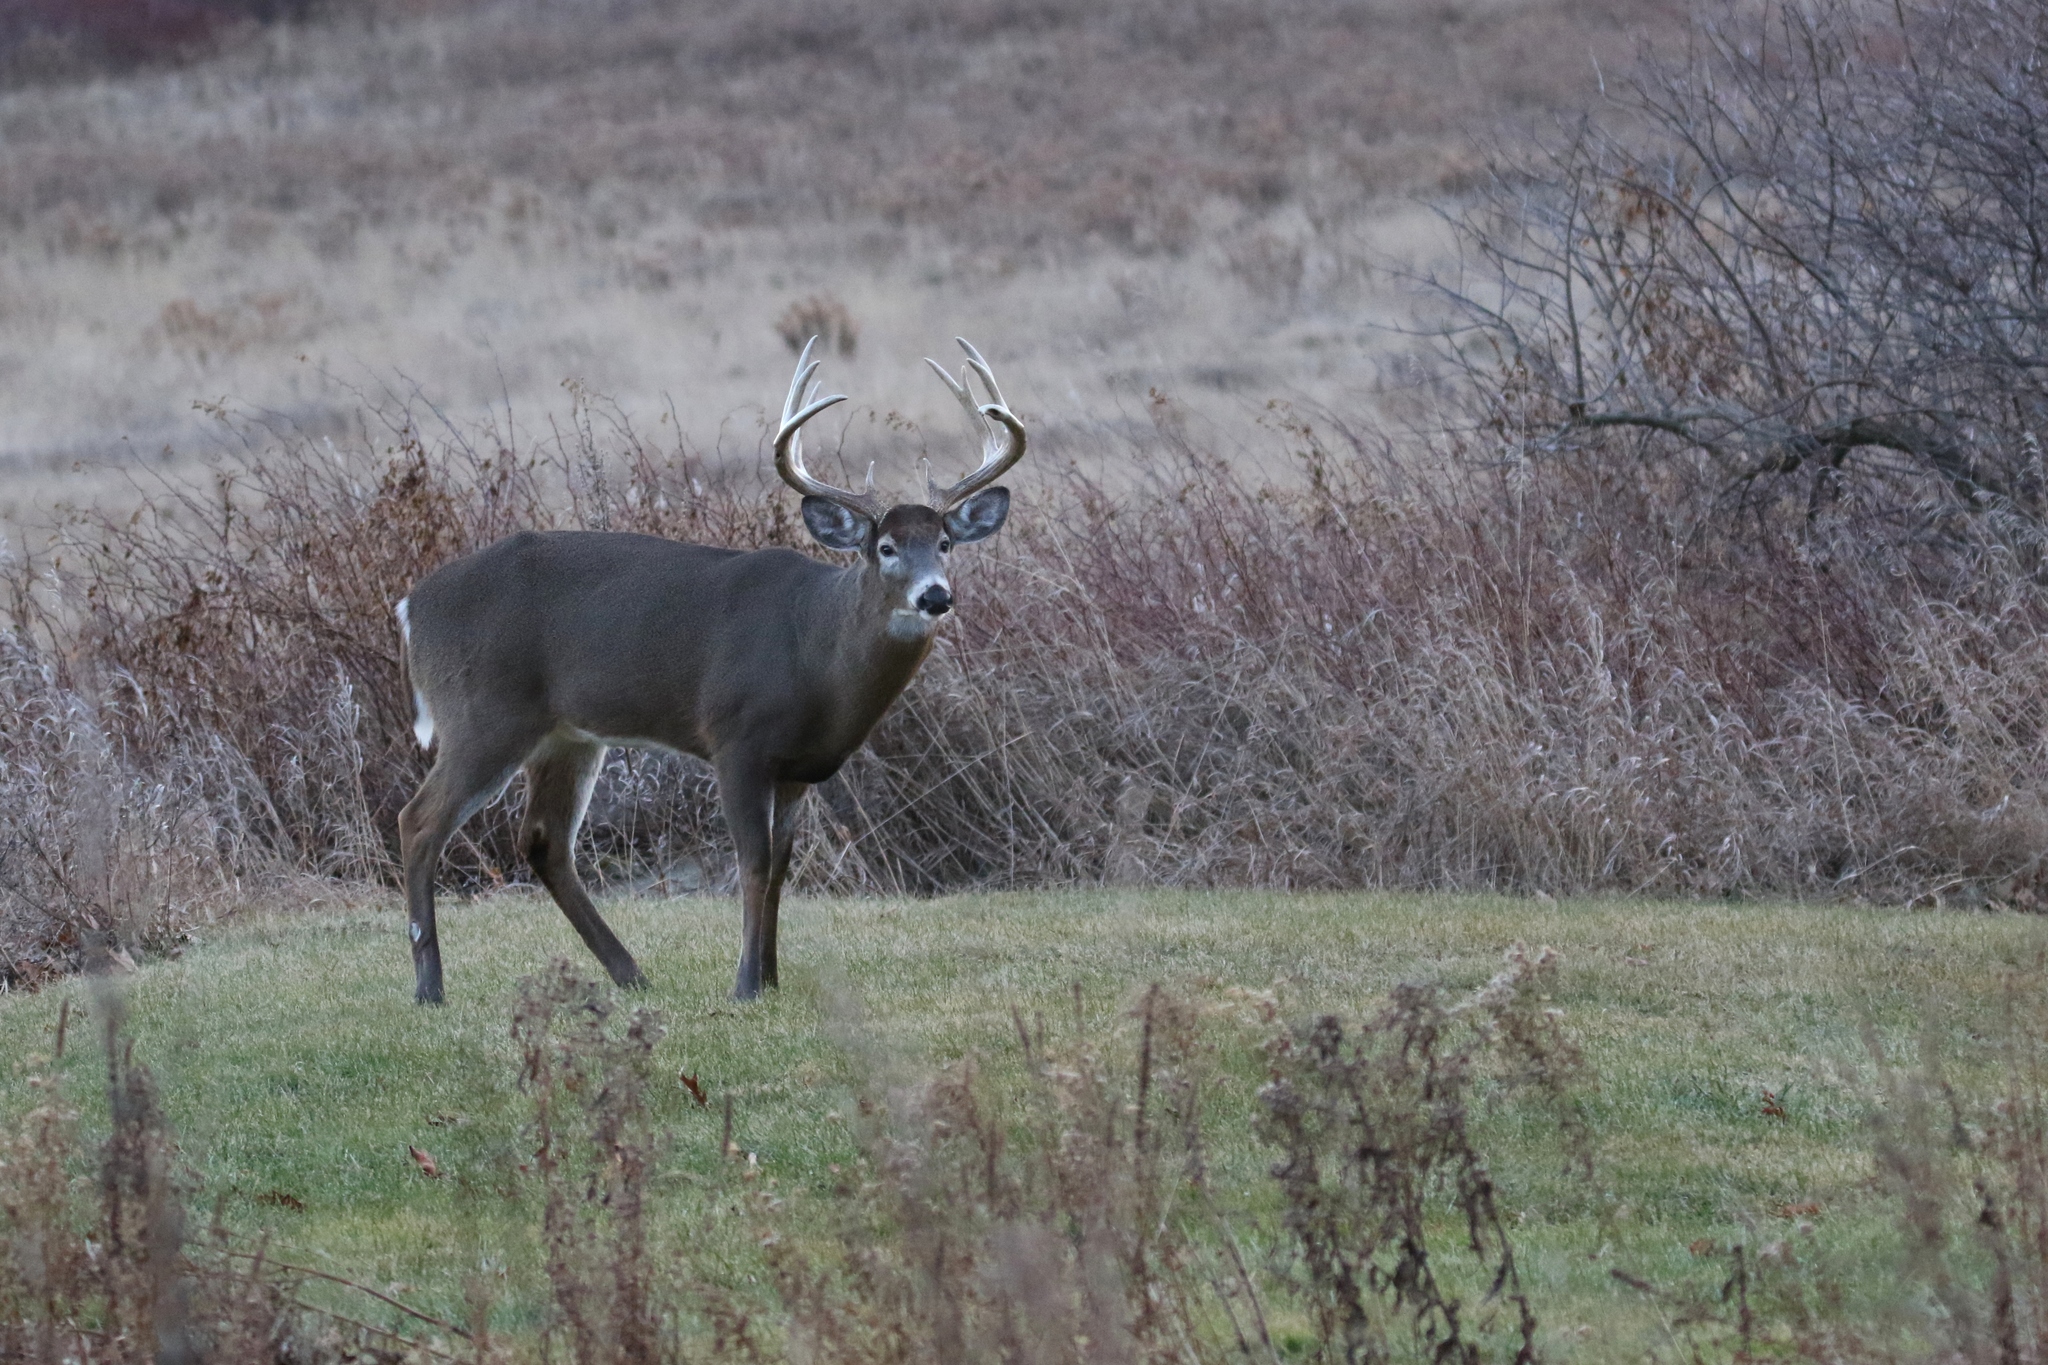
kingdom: Animalia
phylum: Chordata
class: Mammalia
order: Artiodactyla
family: Cervidae
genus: Odocoileus
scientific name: Odocoileus virginianus
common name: White-tailed deer
